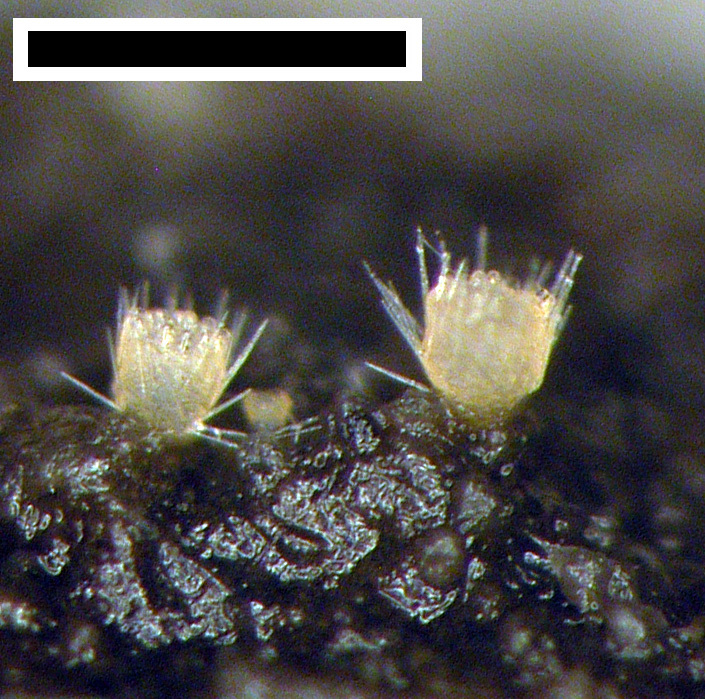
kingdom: Fungi
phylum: Ascomycota
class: Pezizomycetes
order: Pezizales
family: Ascodesmidaceae
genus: Lasiobolus
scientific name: Lasiobolus cuniculi
